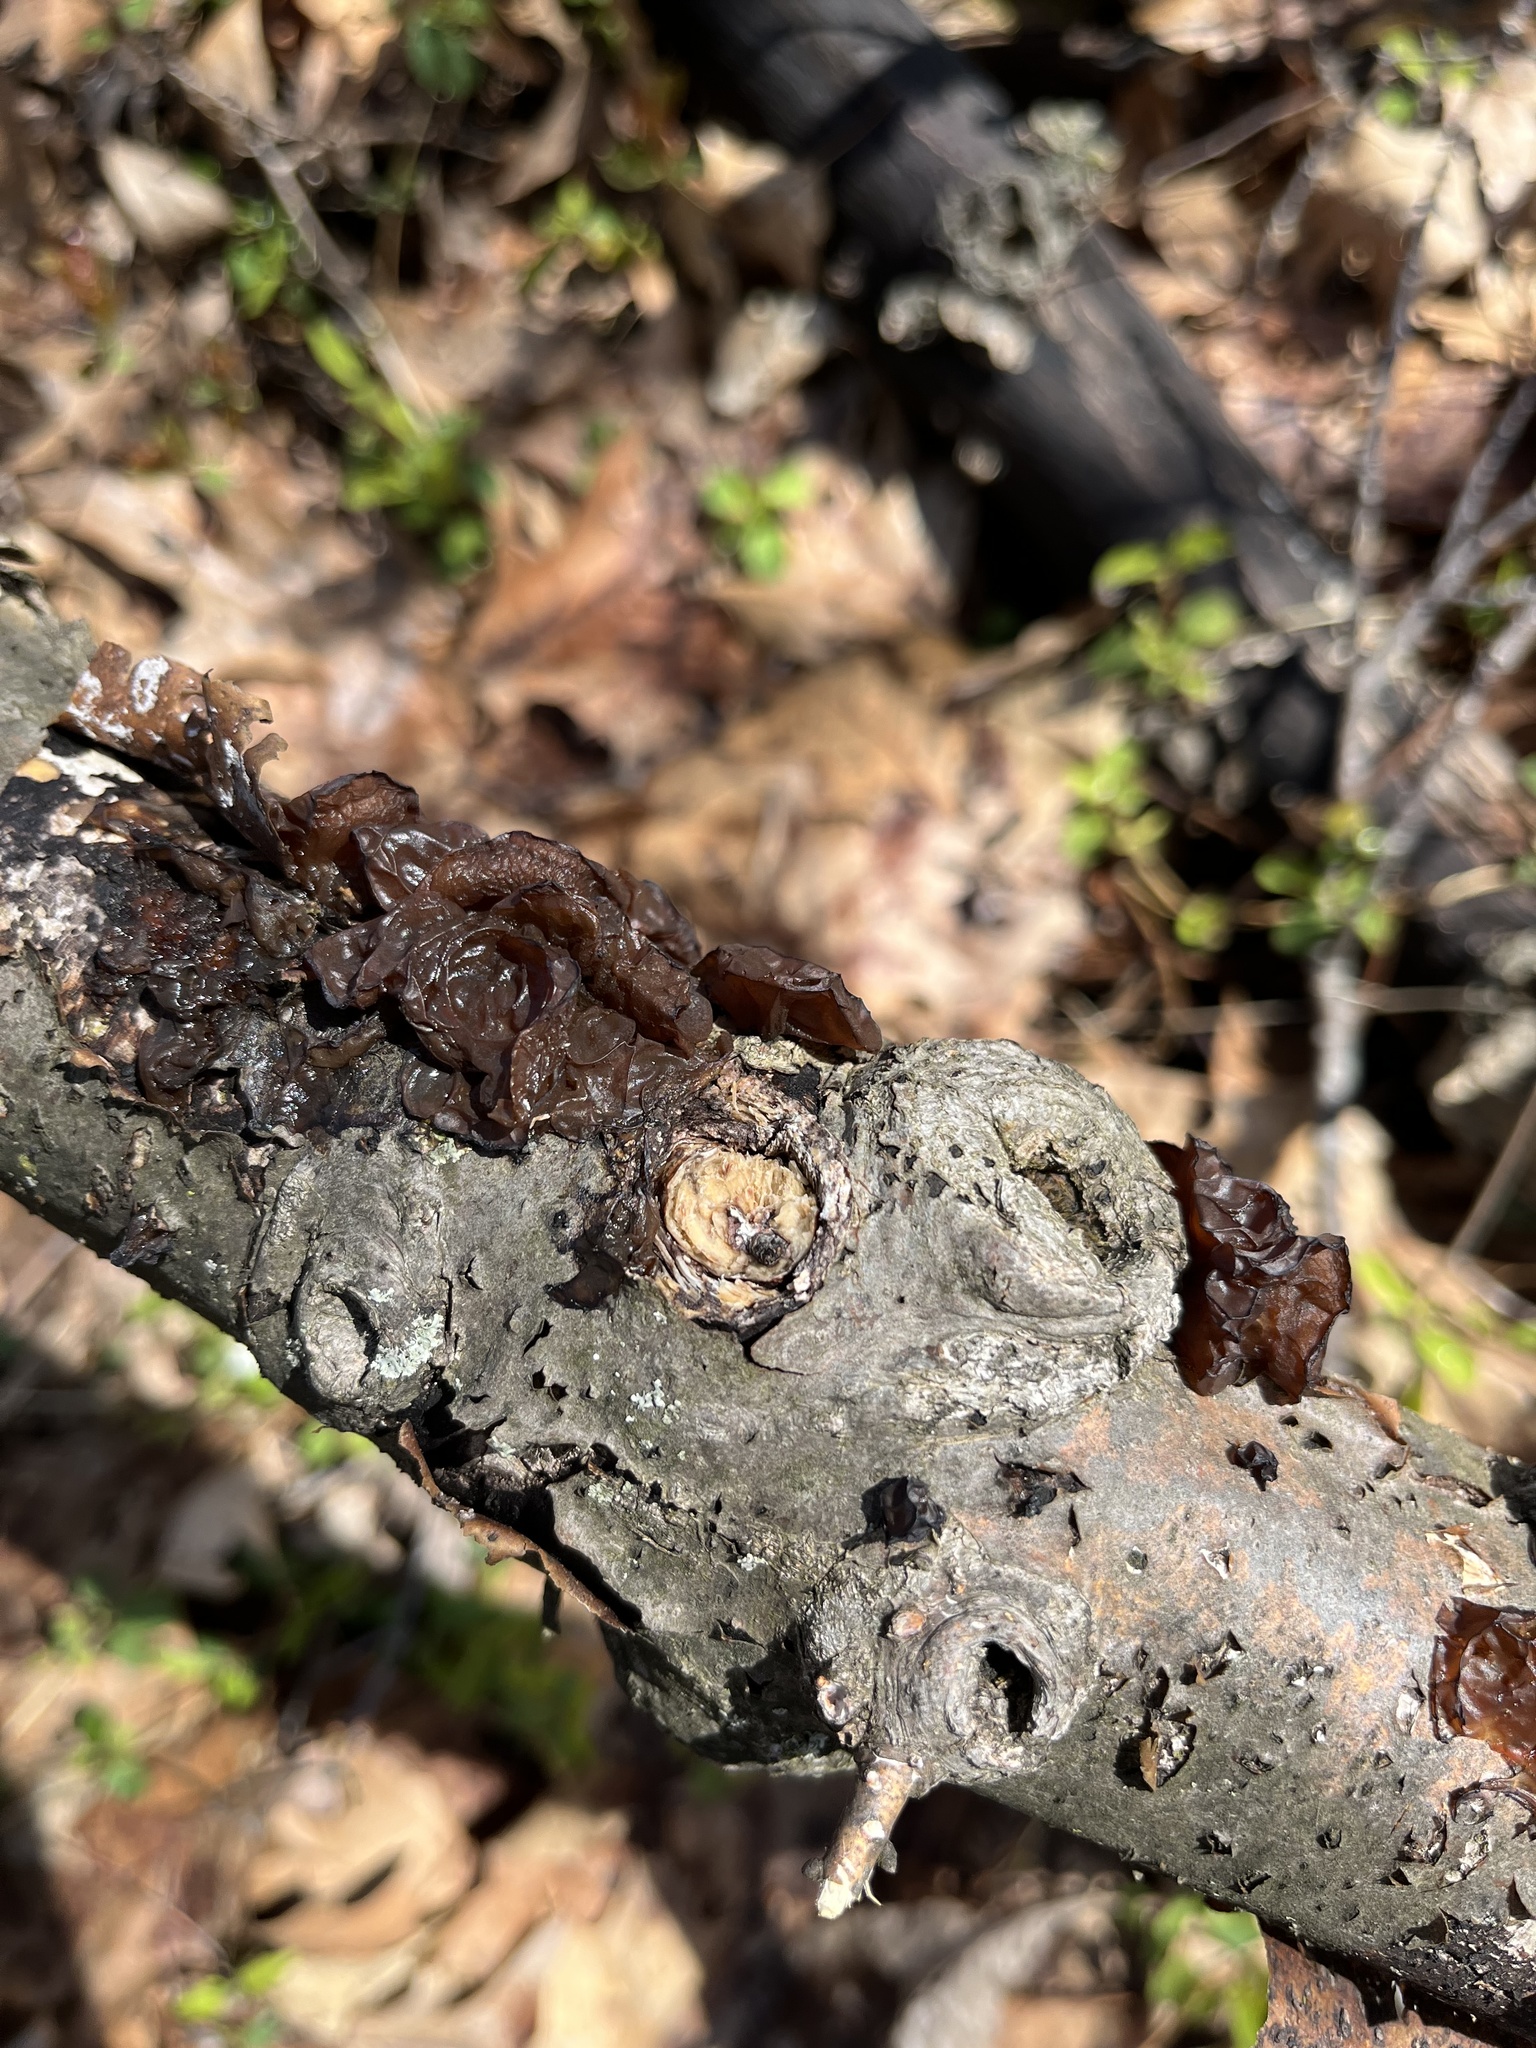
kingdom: Fungi
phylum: Basidiomycota
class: Agaricomycetes
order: Auriculariales
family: Auriculariaceae
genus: Exidia
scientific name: Exidia
